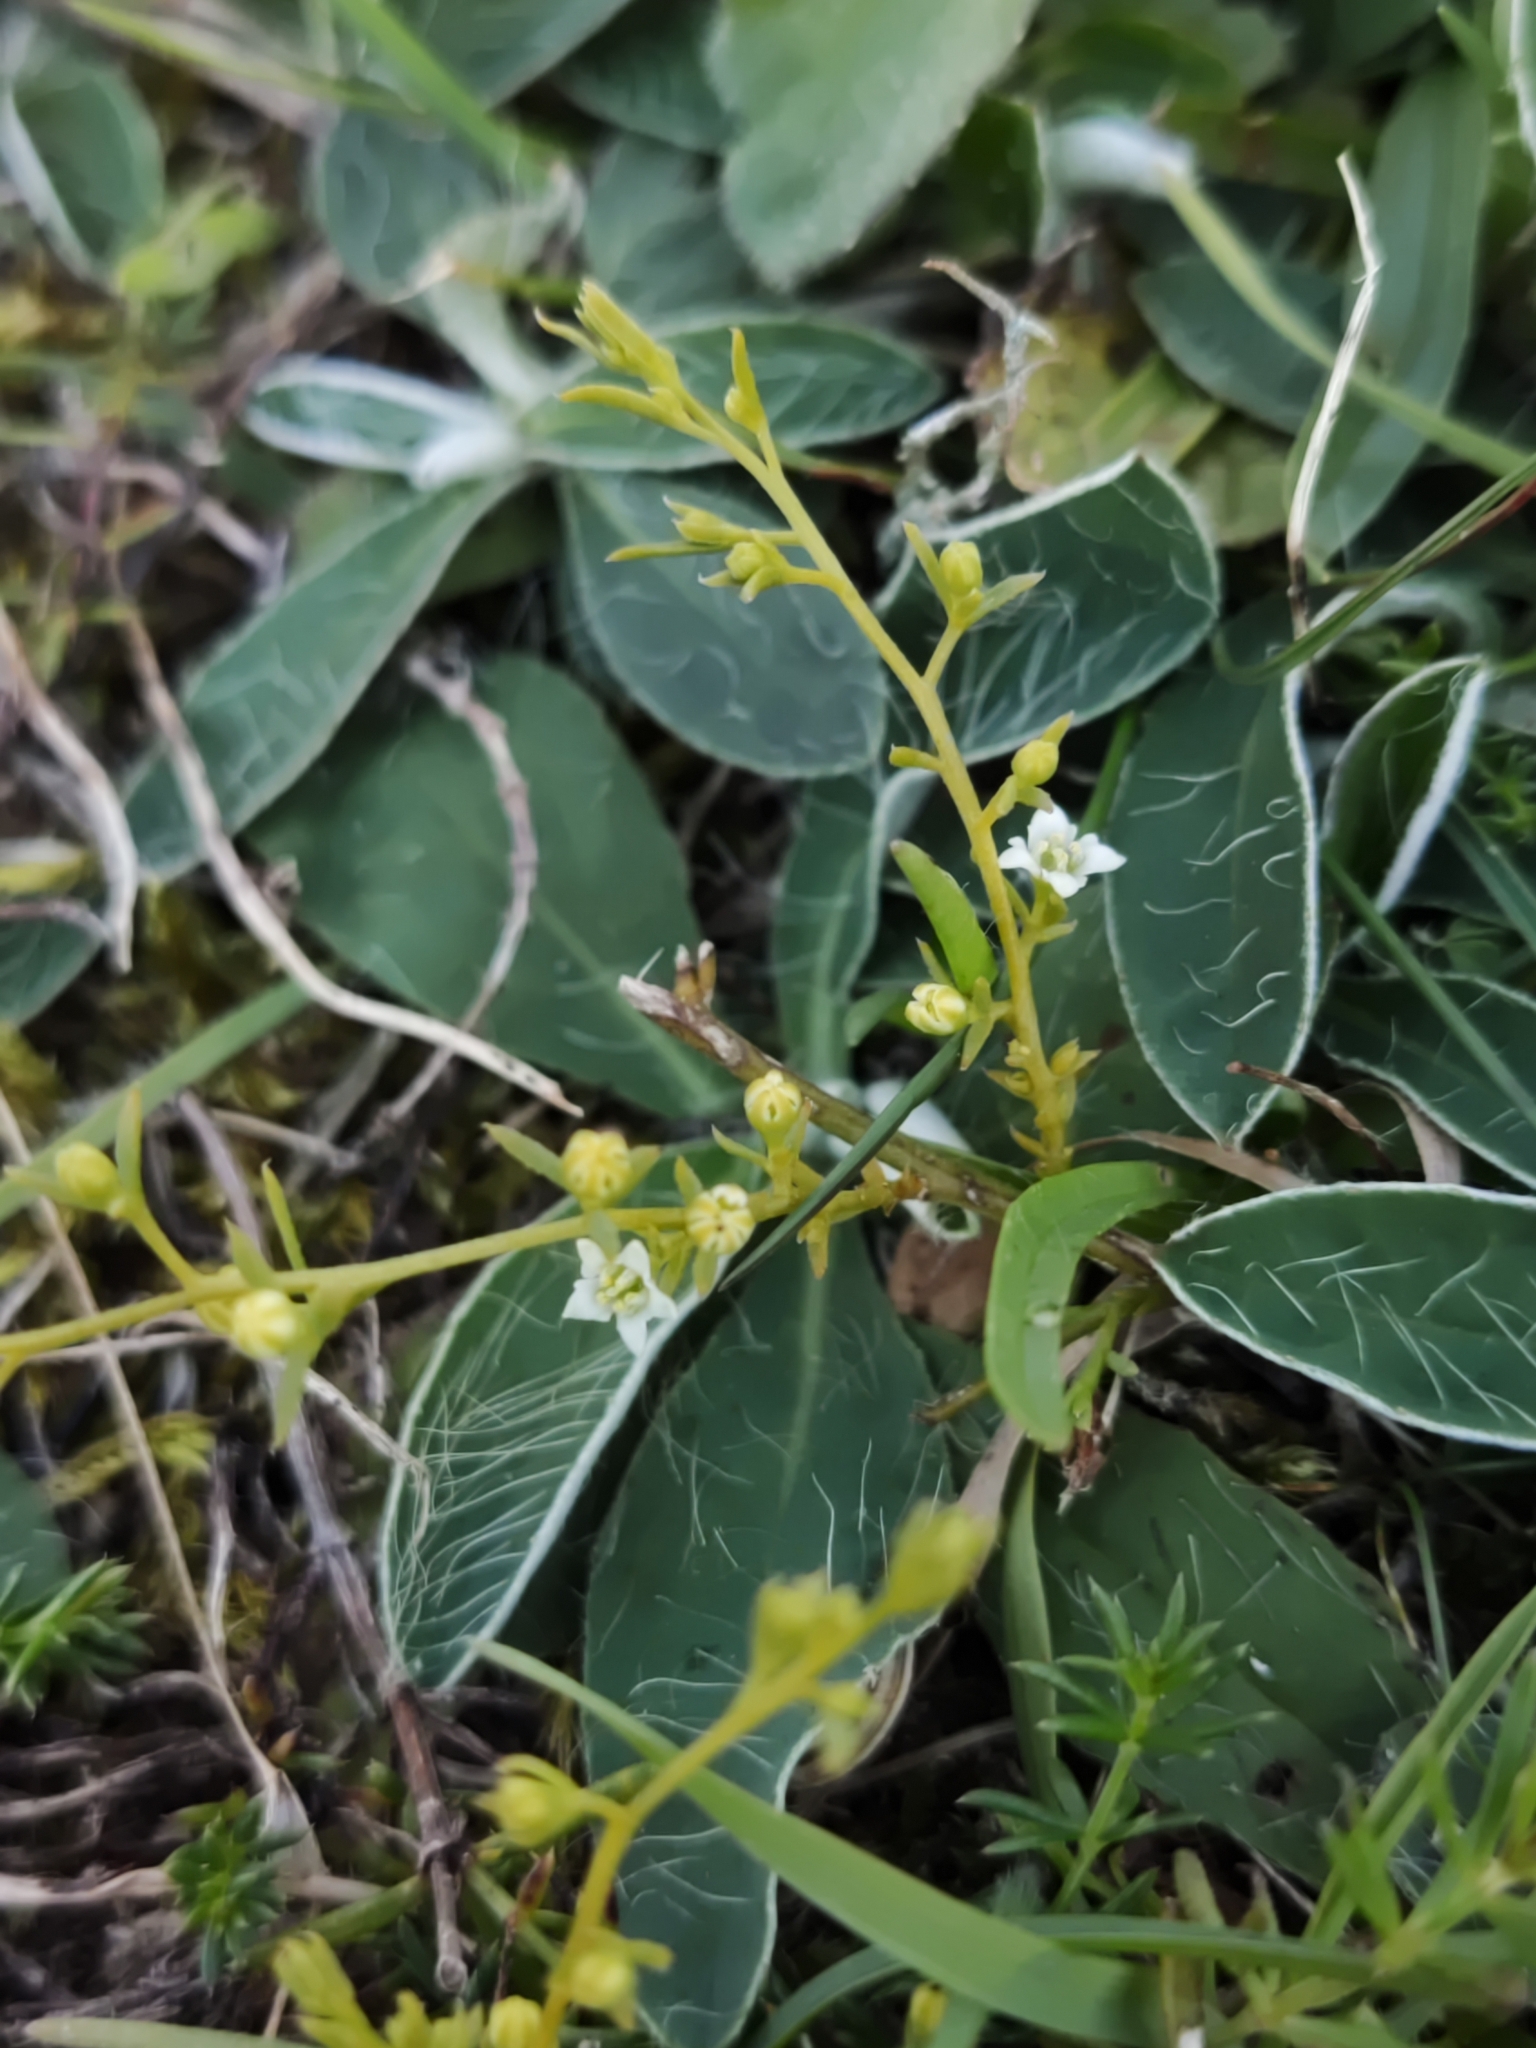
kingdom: Plantae
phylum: Tracheophyta
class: Magnoliopsida
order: Santalales
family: Thesiaceae
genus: Thesium
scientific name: Thesium humifusum
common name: Bastard-toadflax
